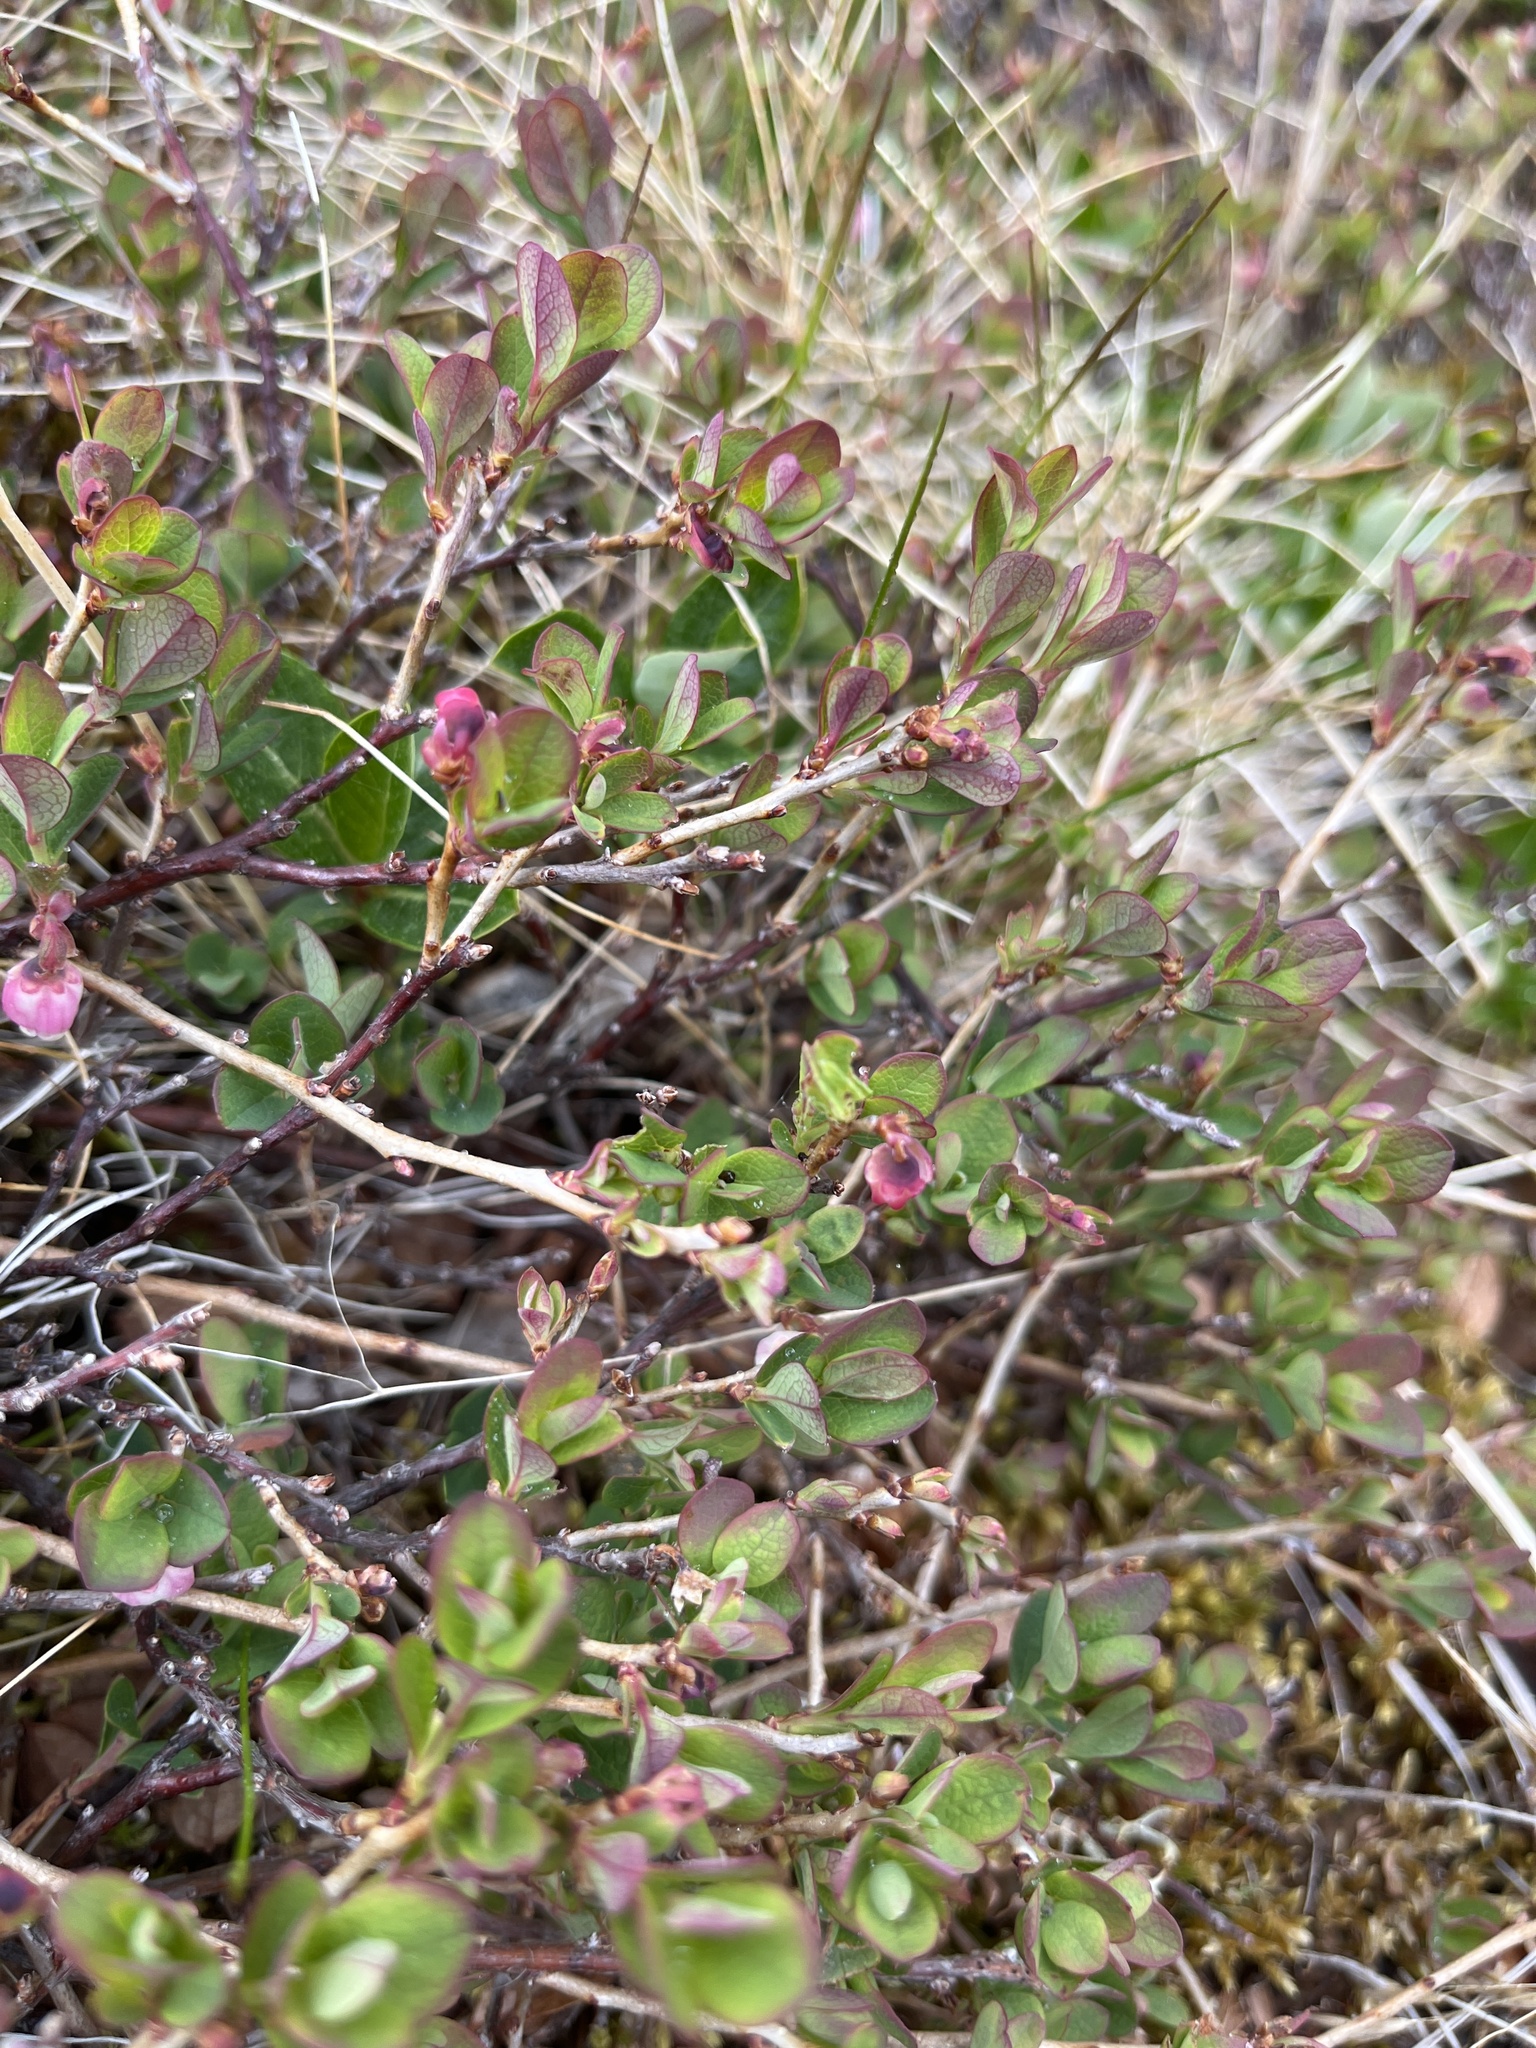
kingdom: Plantae
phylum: Tracheophyta
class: Magnoliopsida
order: Ericales
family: Ericaceae
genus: Vaccinium
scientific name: Vaccinium uliginosum
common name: Bog bilberry
